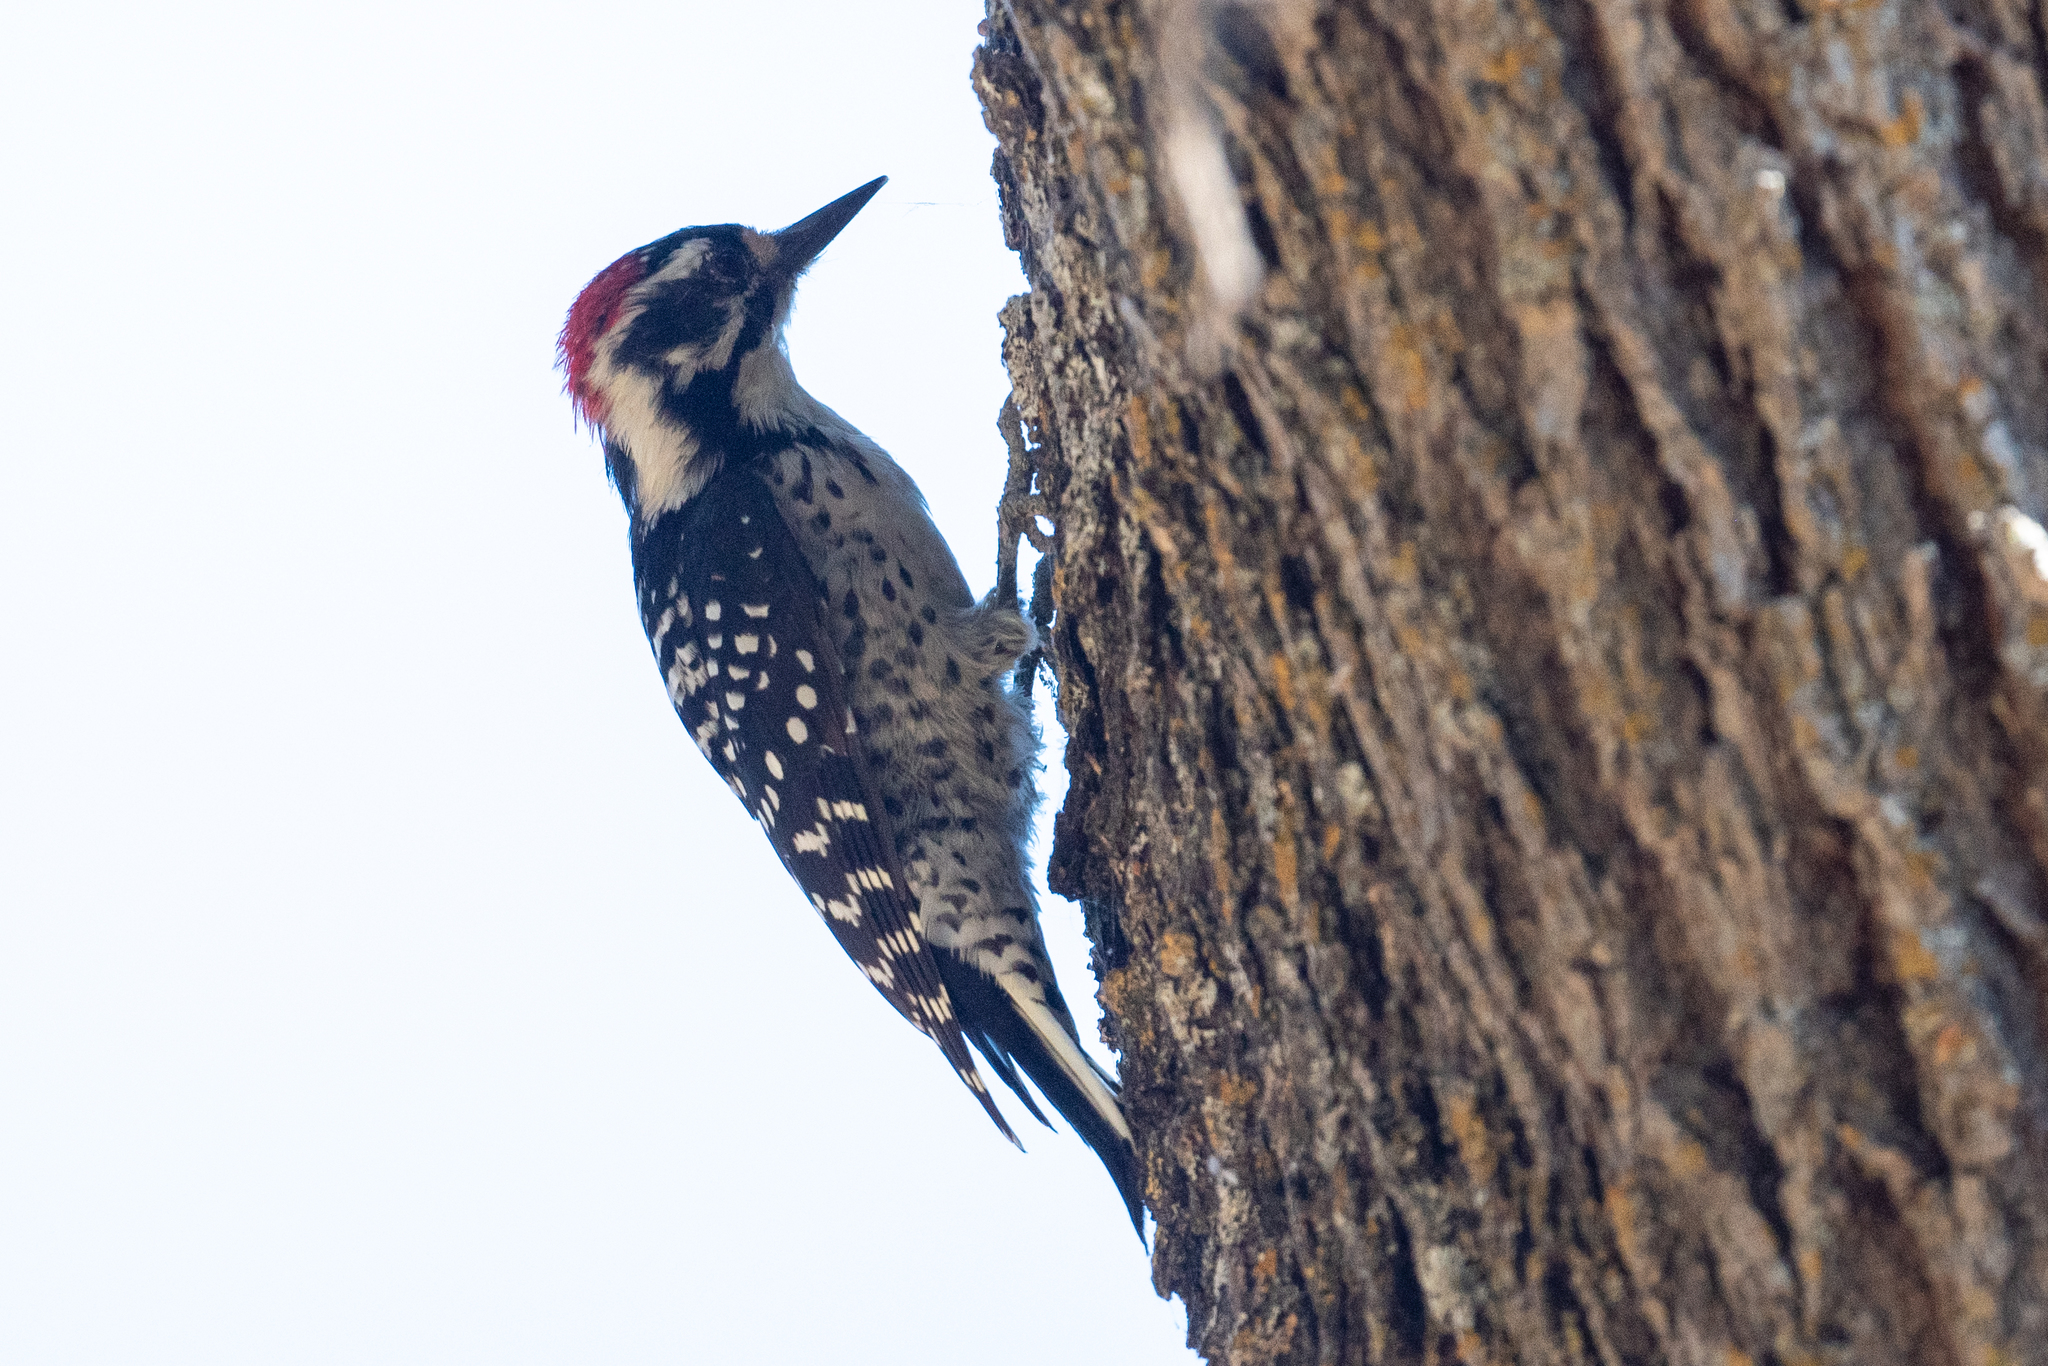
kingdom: Animalia
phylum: Chordata
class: Aves
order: Piciformes
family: Picidae
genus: Dryobates
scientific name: Dryobates nuttallii
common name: Nuttall's woodpecker
